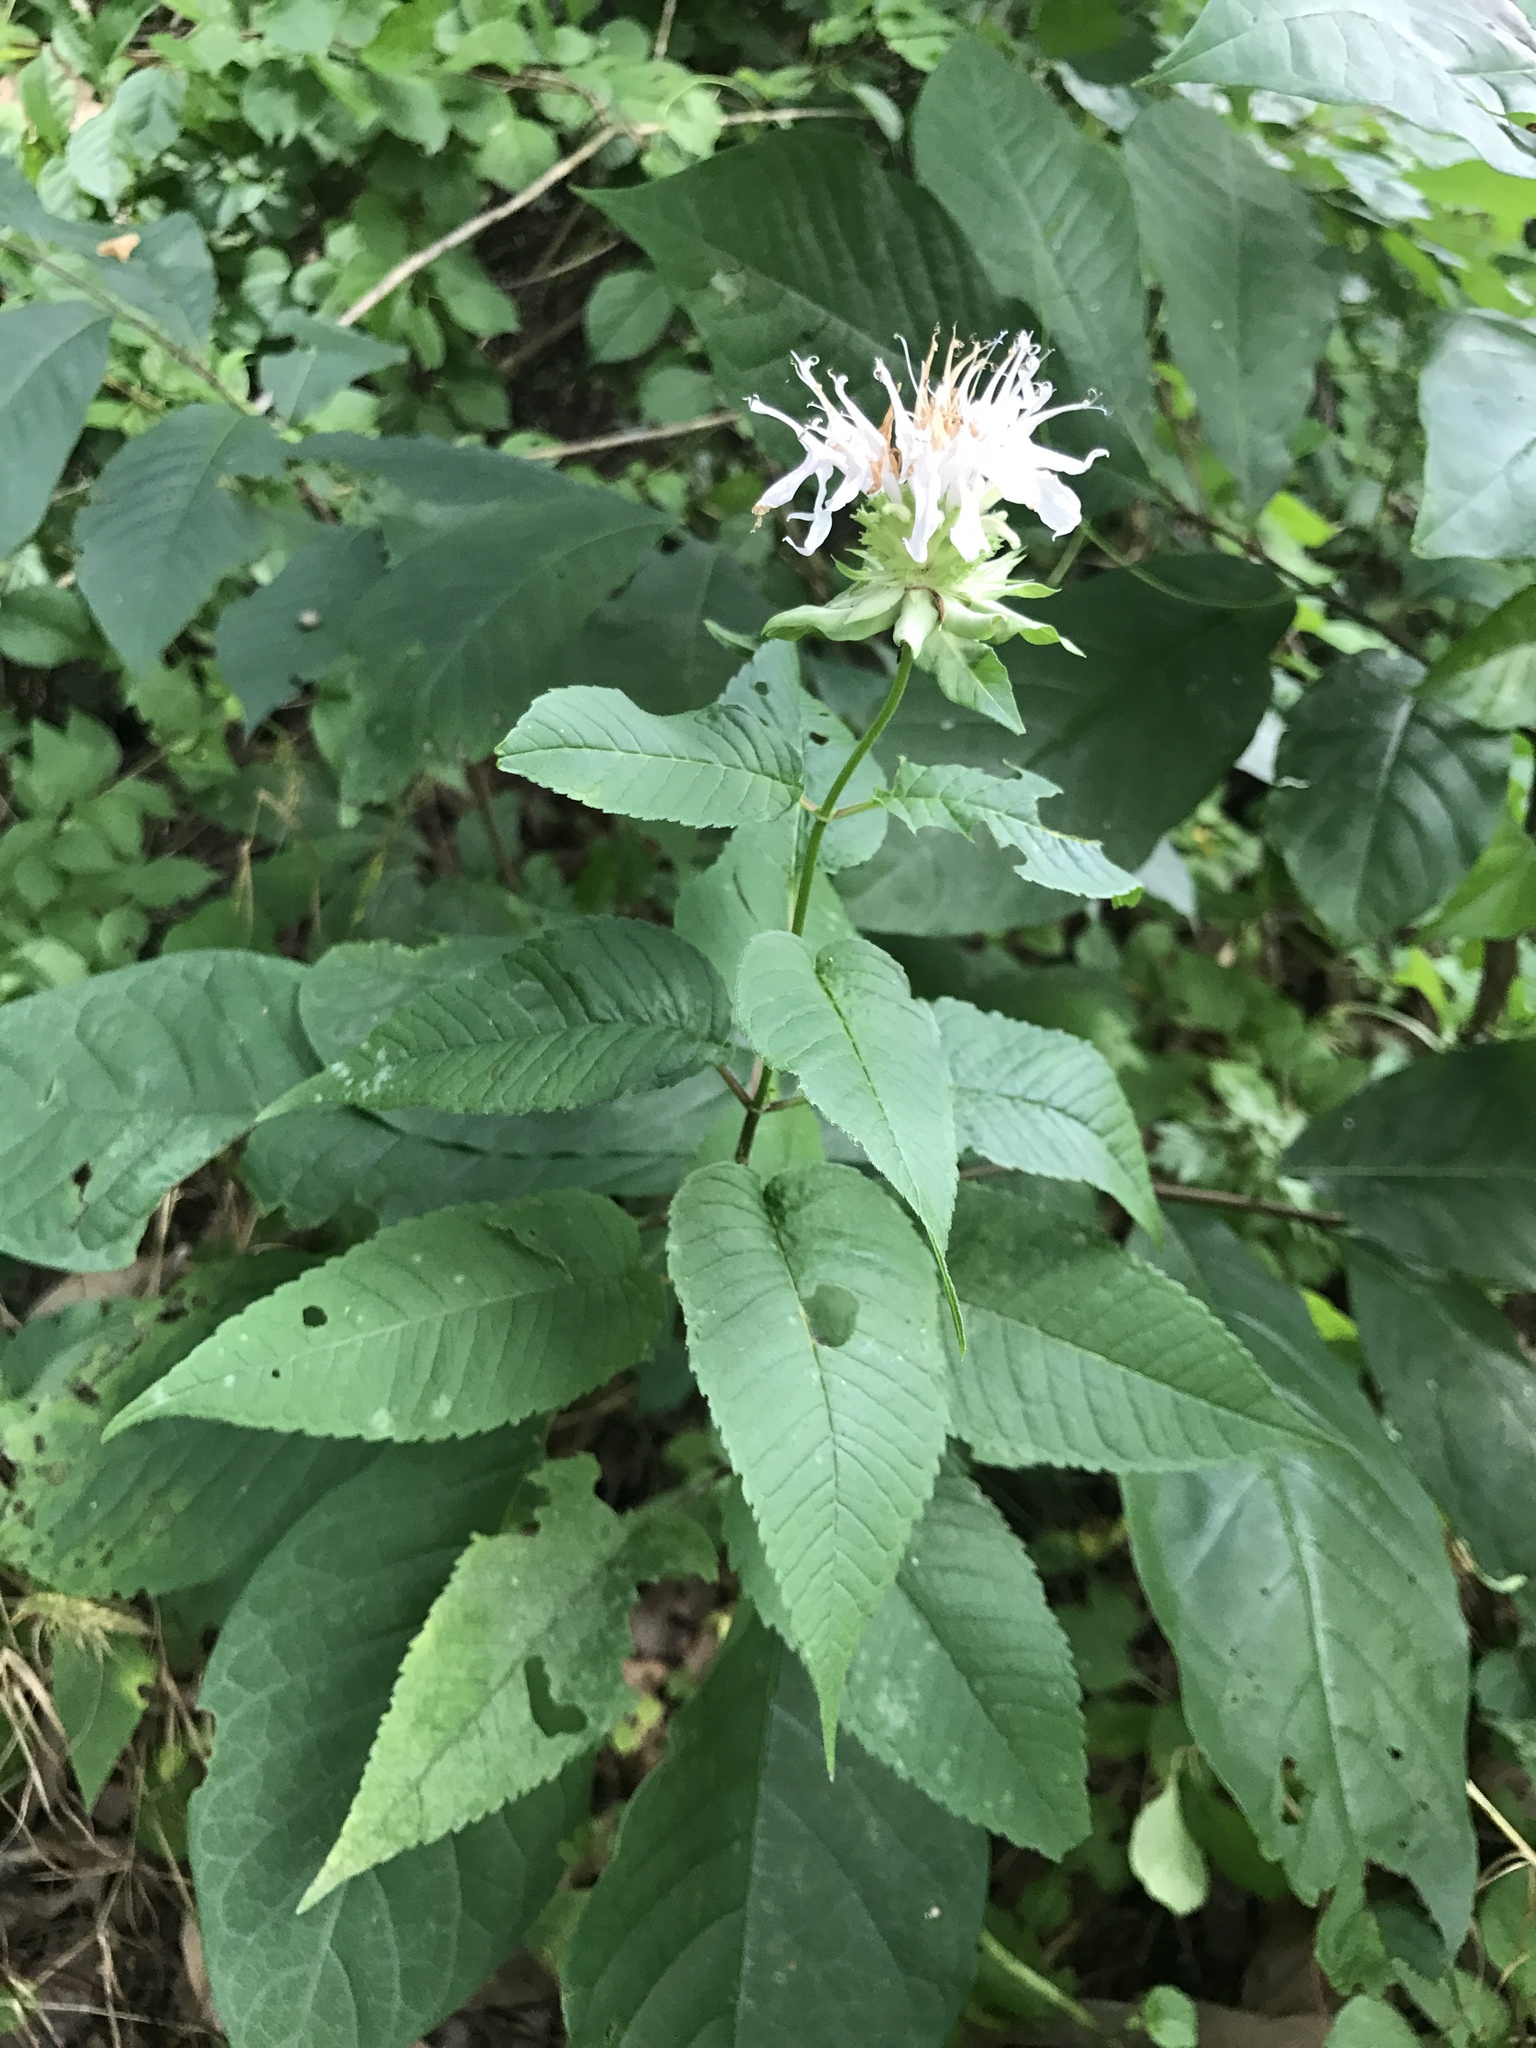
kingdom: Plantae
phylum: Tracheophyta
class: Magnoliopsida
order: Lamiales
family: Lamiaceae
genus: Monarda
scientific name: Monarda fistulosa
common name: Purple beebalm
